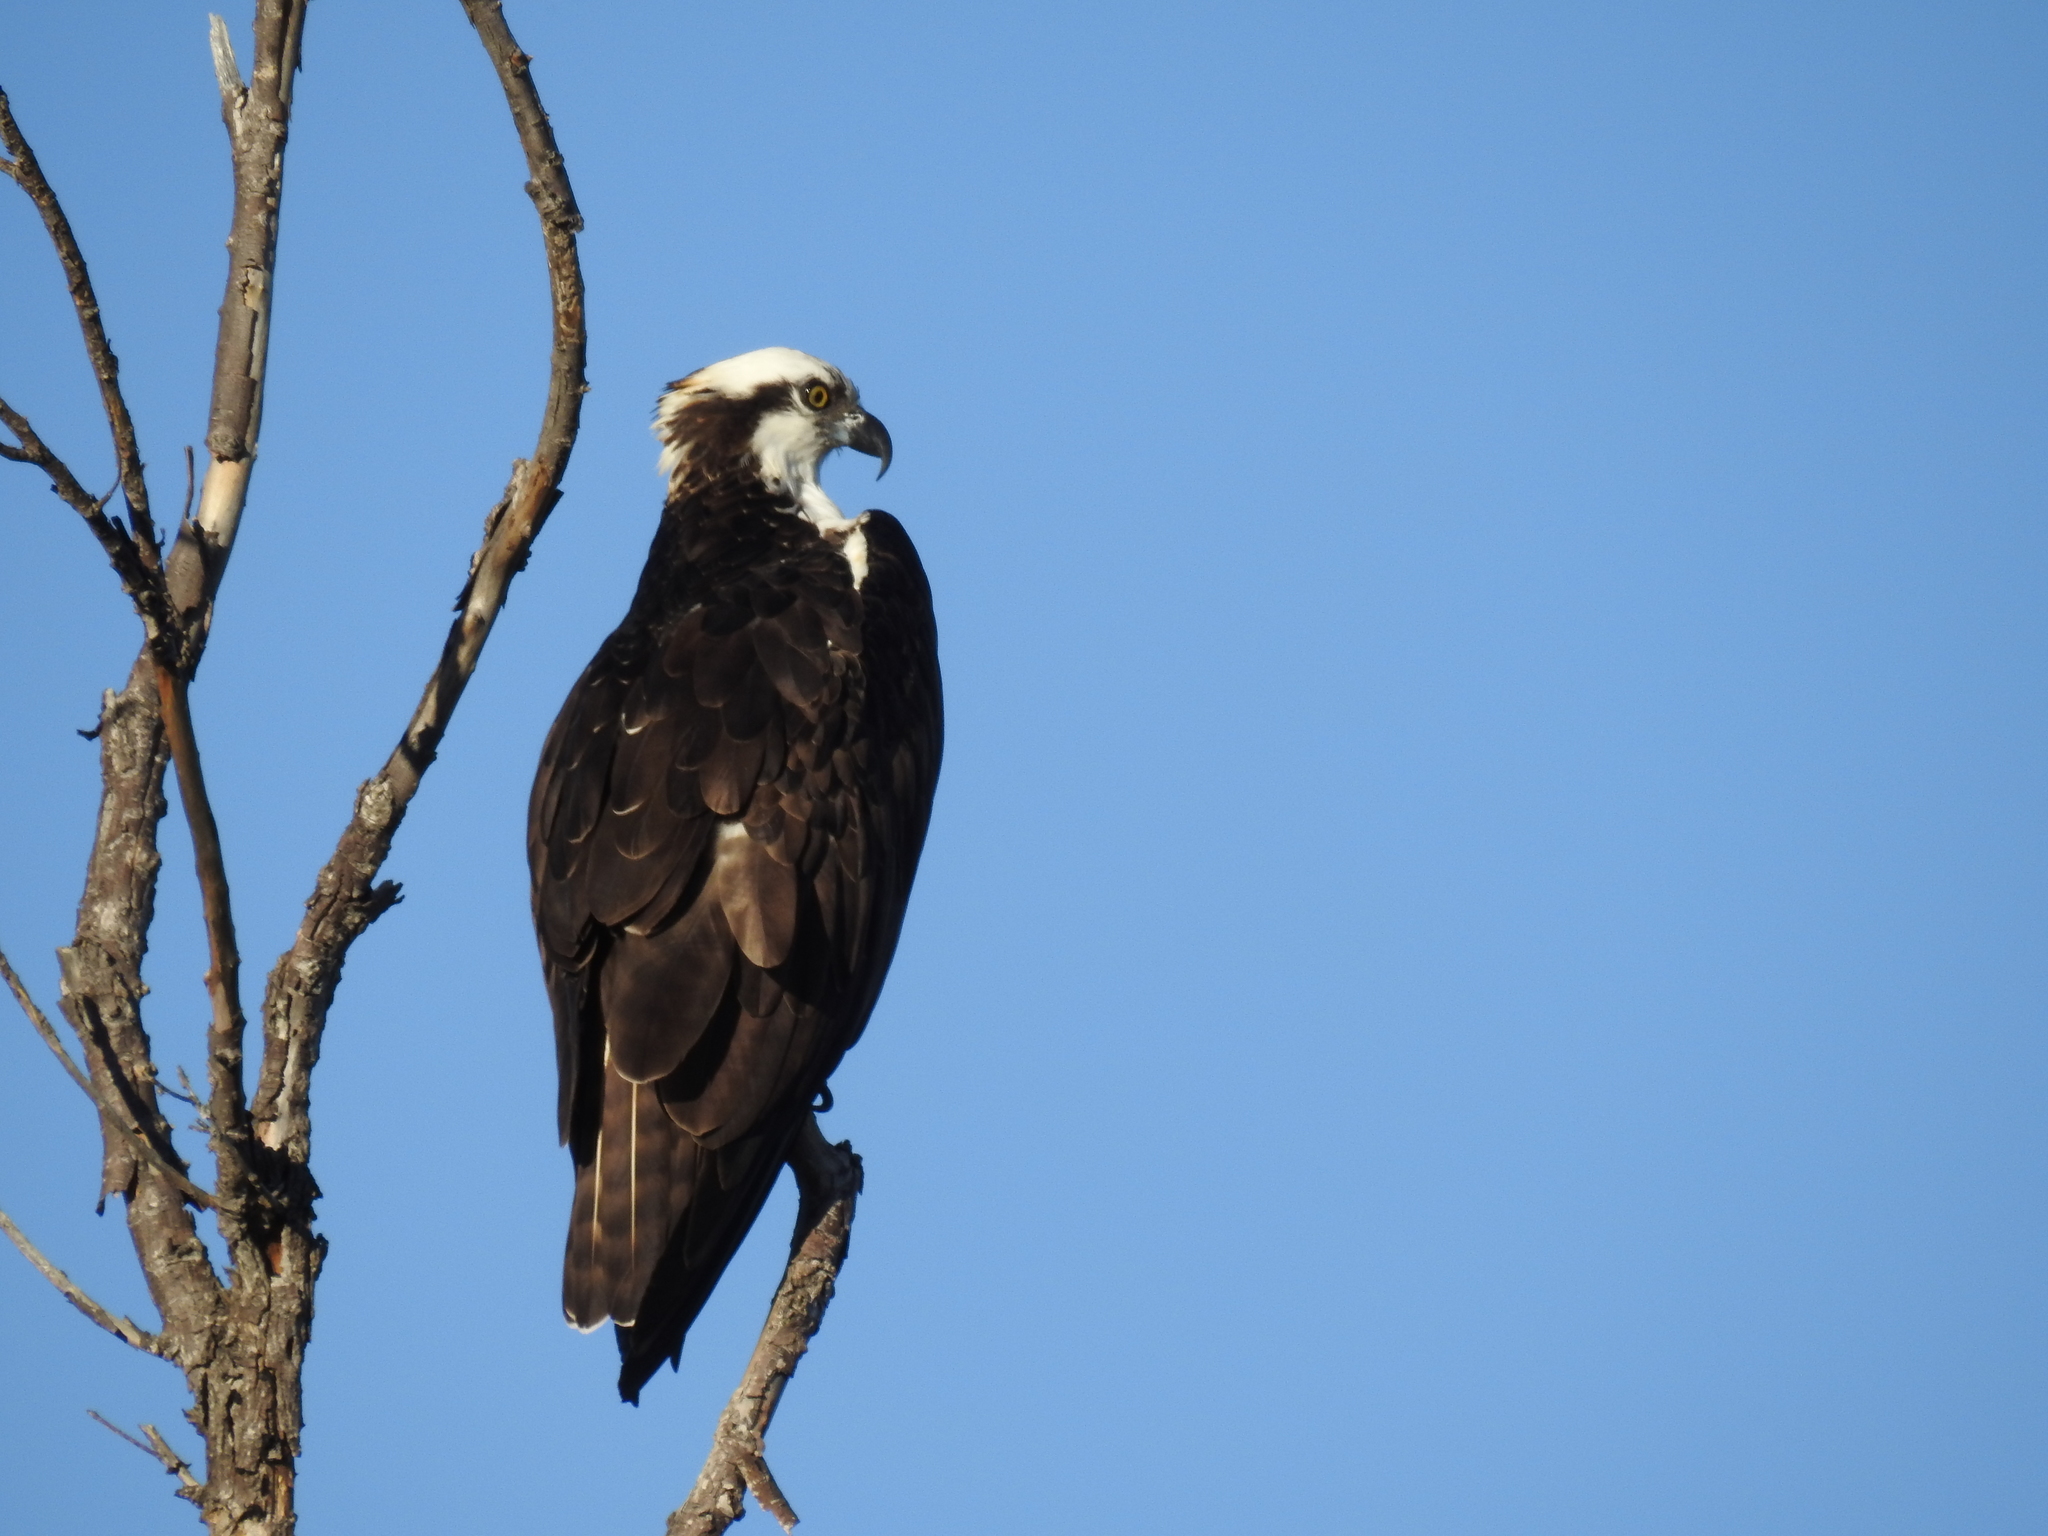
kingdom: Animalia
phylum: Chordata
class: Aves
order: Accipitriformes
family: Pandionidae
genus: Pandion
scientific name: Pandion haliaetus
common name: Osprey
